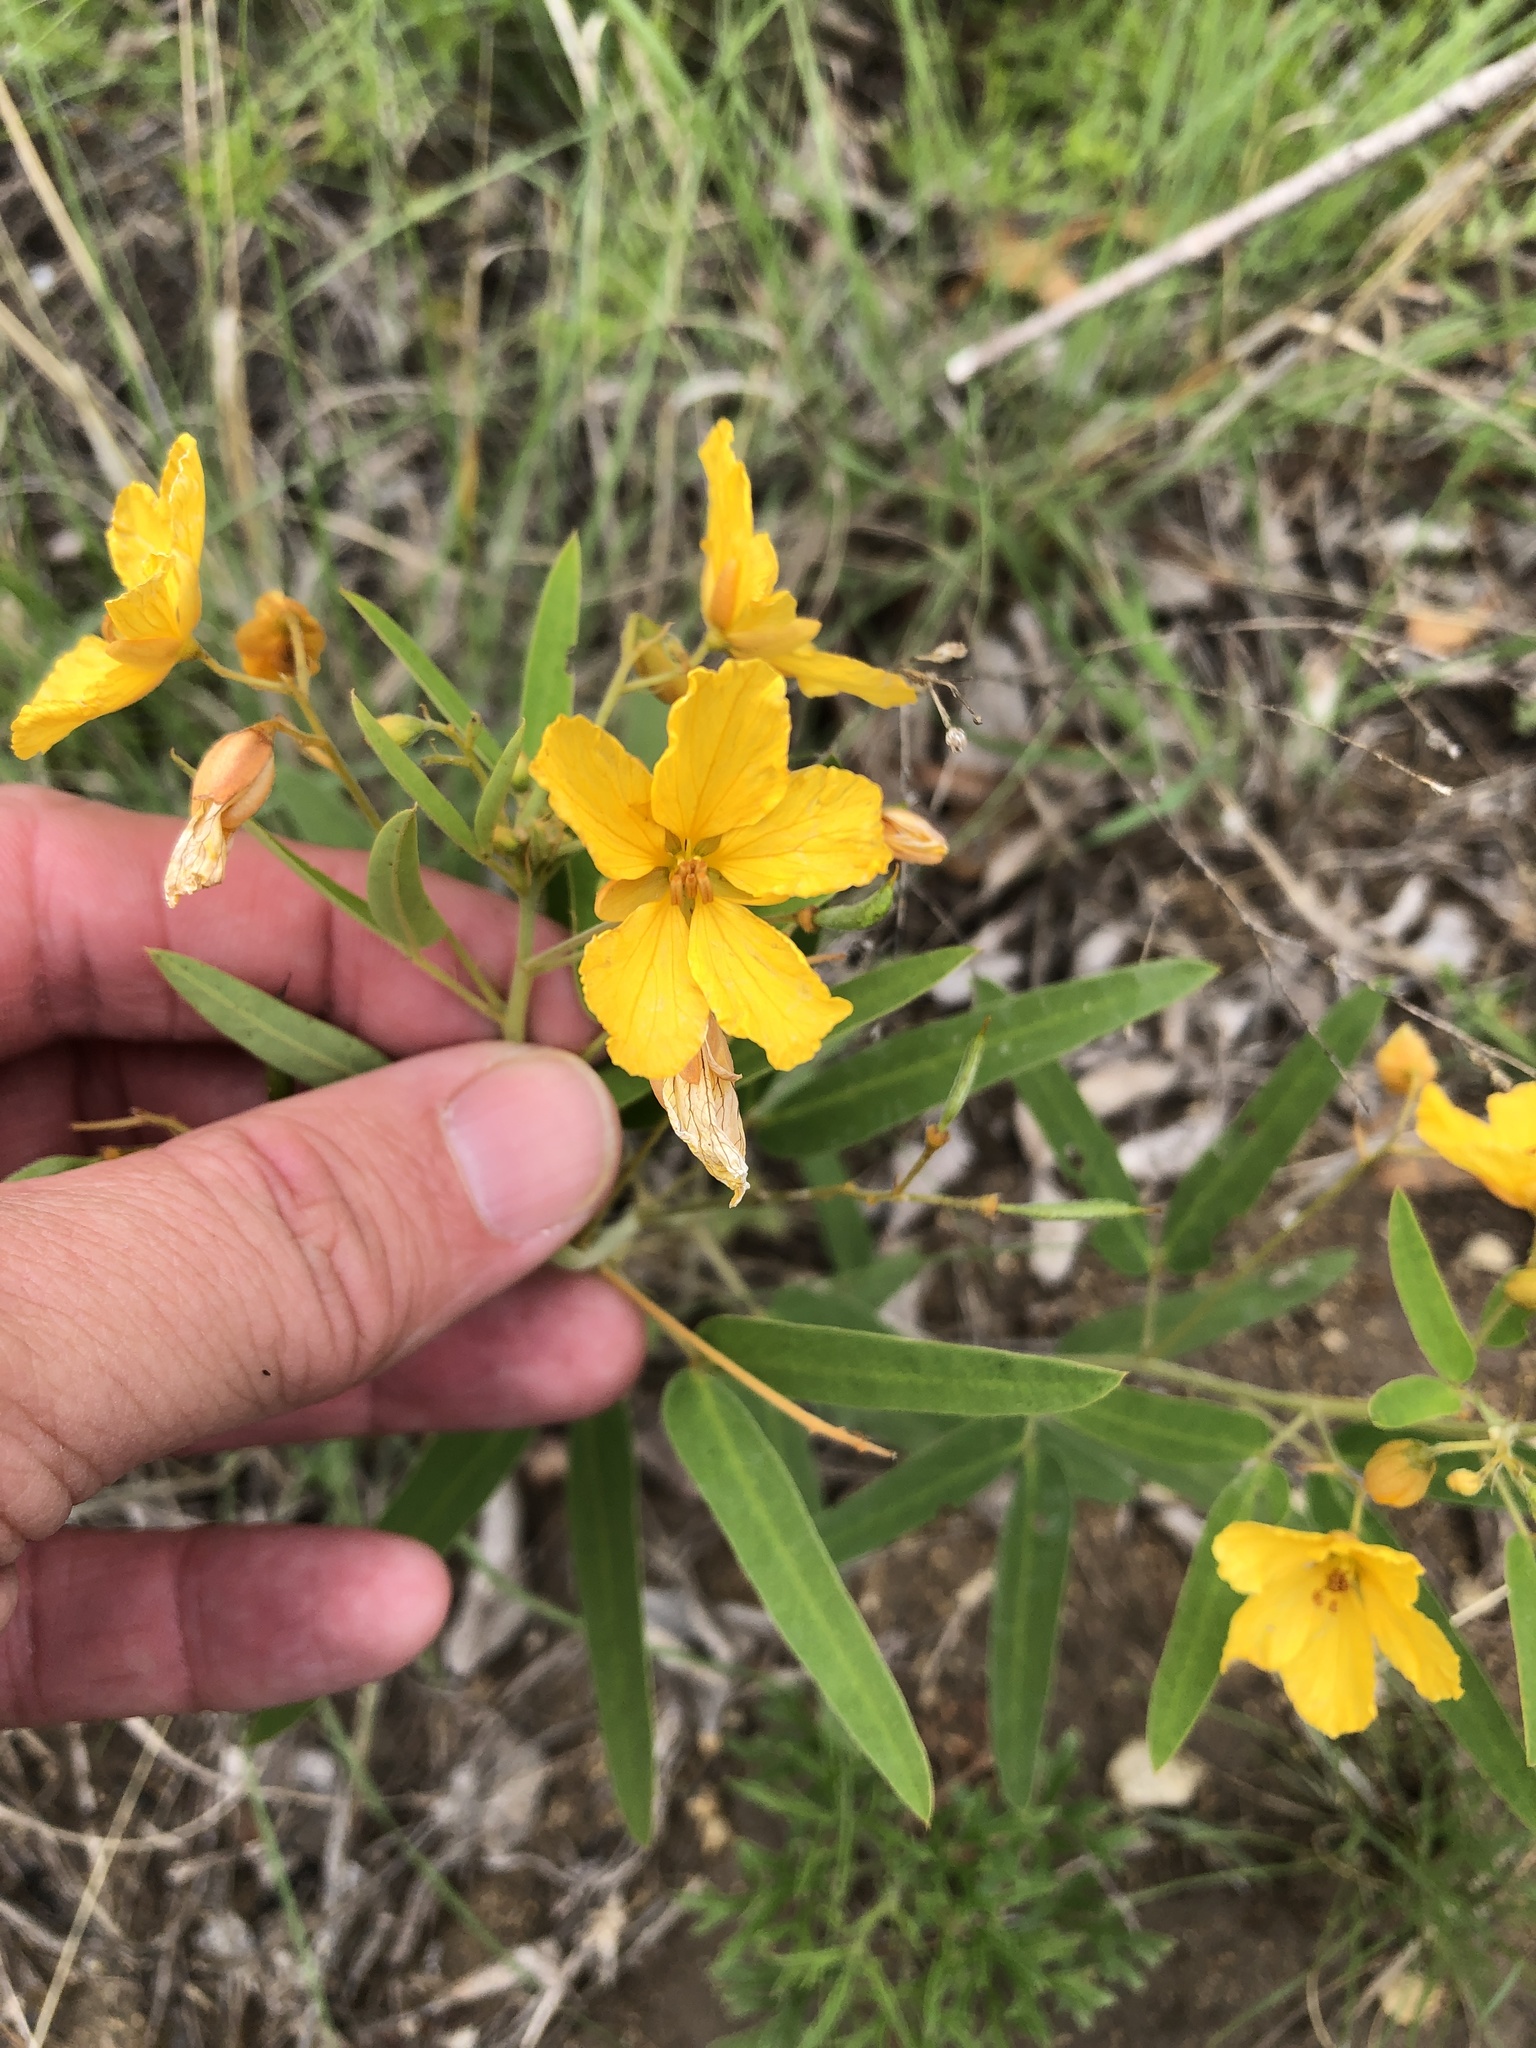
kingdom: Plantae
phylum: Tracheophyta
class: Magnoliopsida
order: Fabales
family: Fabaceae
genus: Senna
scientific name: Senna roemeriana
